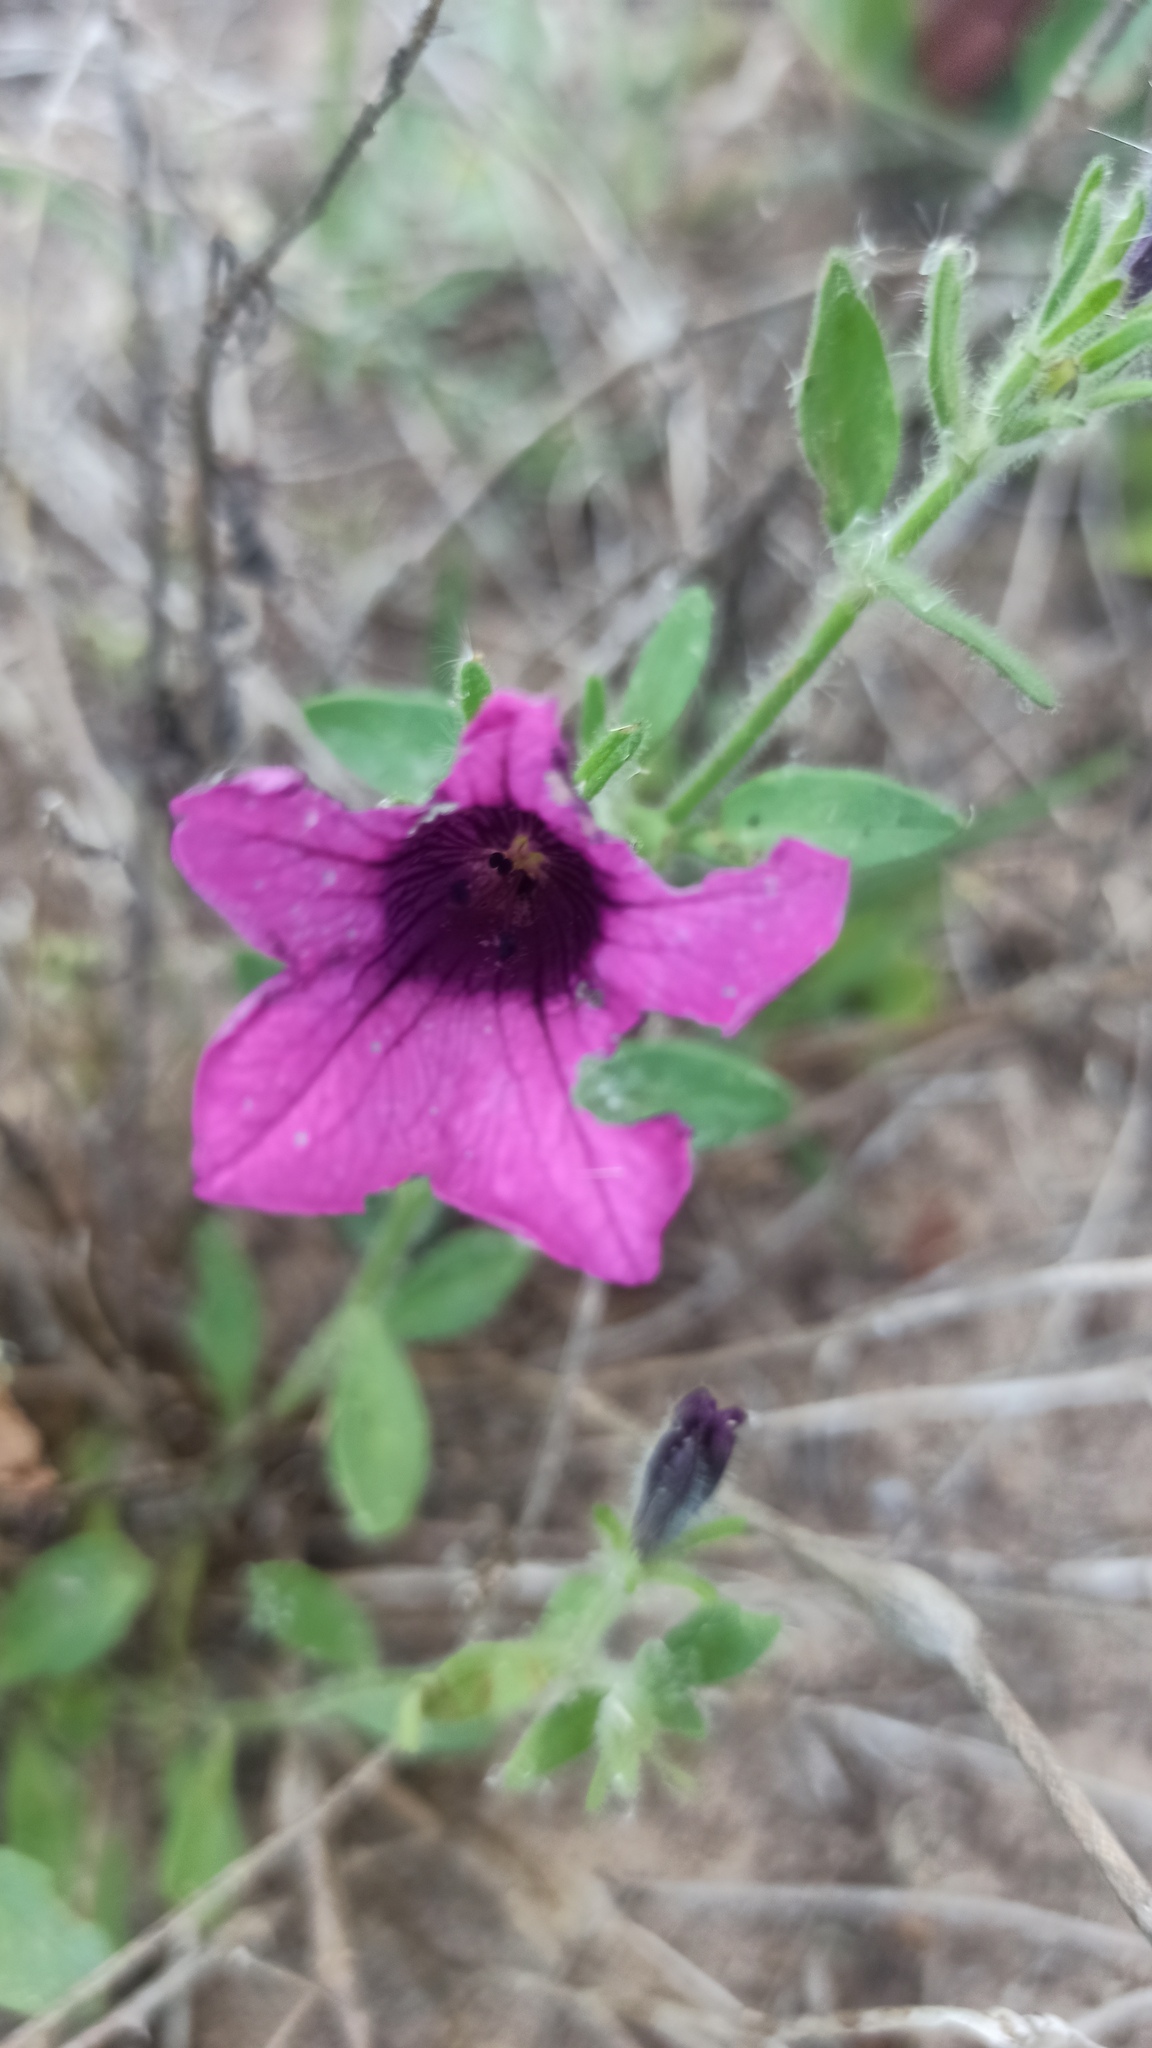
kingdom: Plantae
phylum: Tracheophyta
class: Magnoliopsida
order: Solanales
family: Solanaceae
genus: Petunia
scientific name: Petunia integrifolia
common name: Violet-flower petunia
